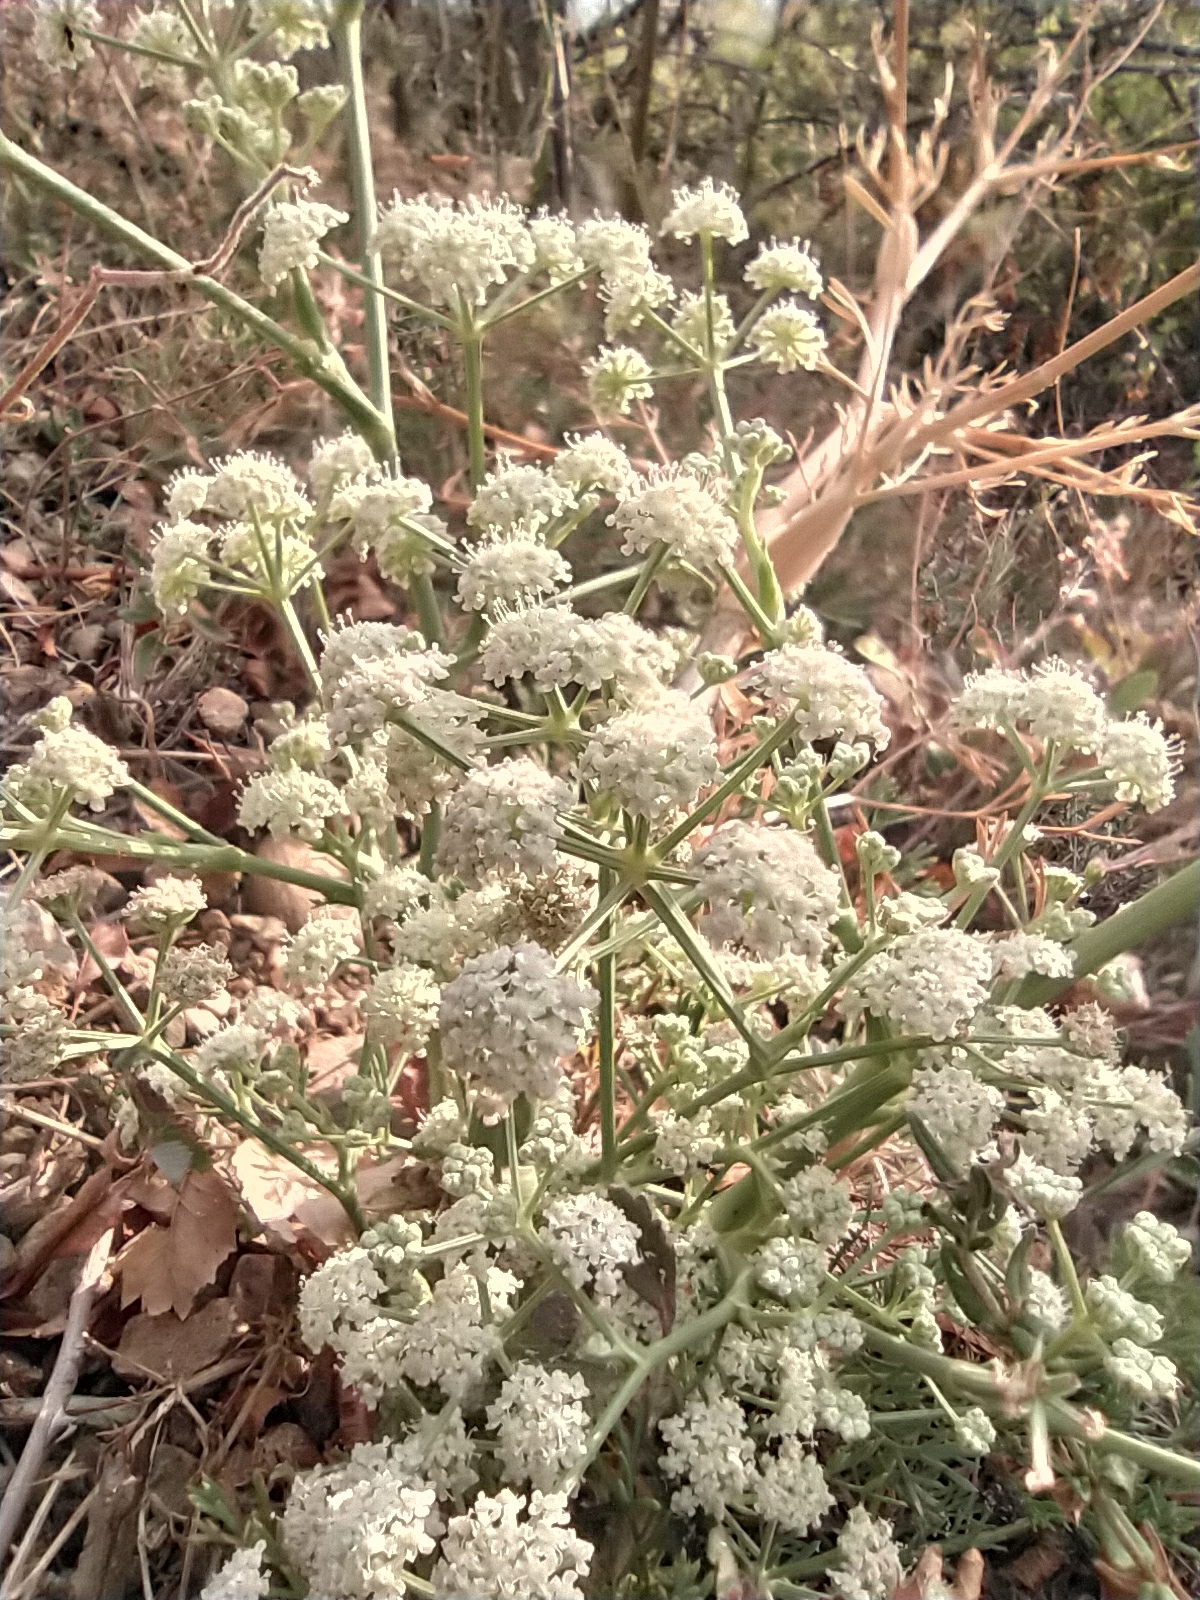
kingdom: Plantae
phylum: Tracheophyta
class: Magnoliopsida
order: Apiales
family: Apiaceae
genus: Seseli
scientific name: Seseli arenarium
